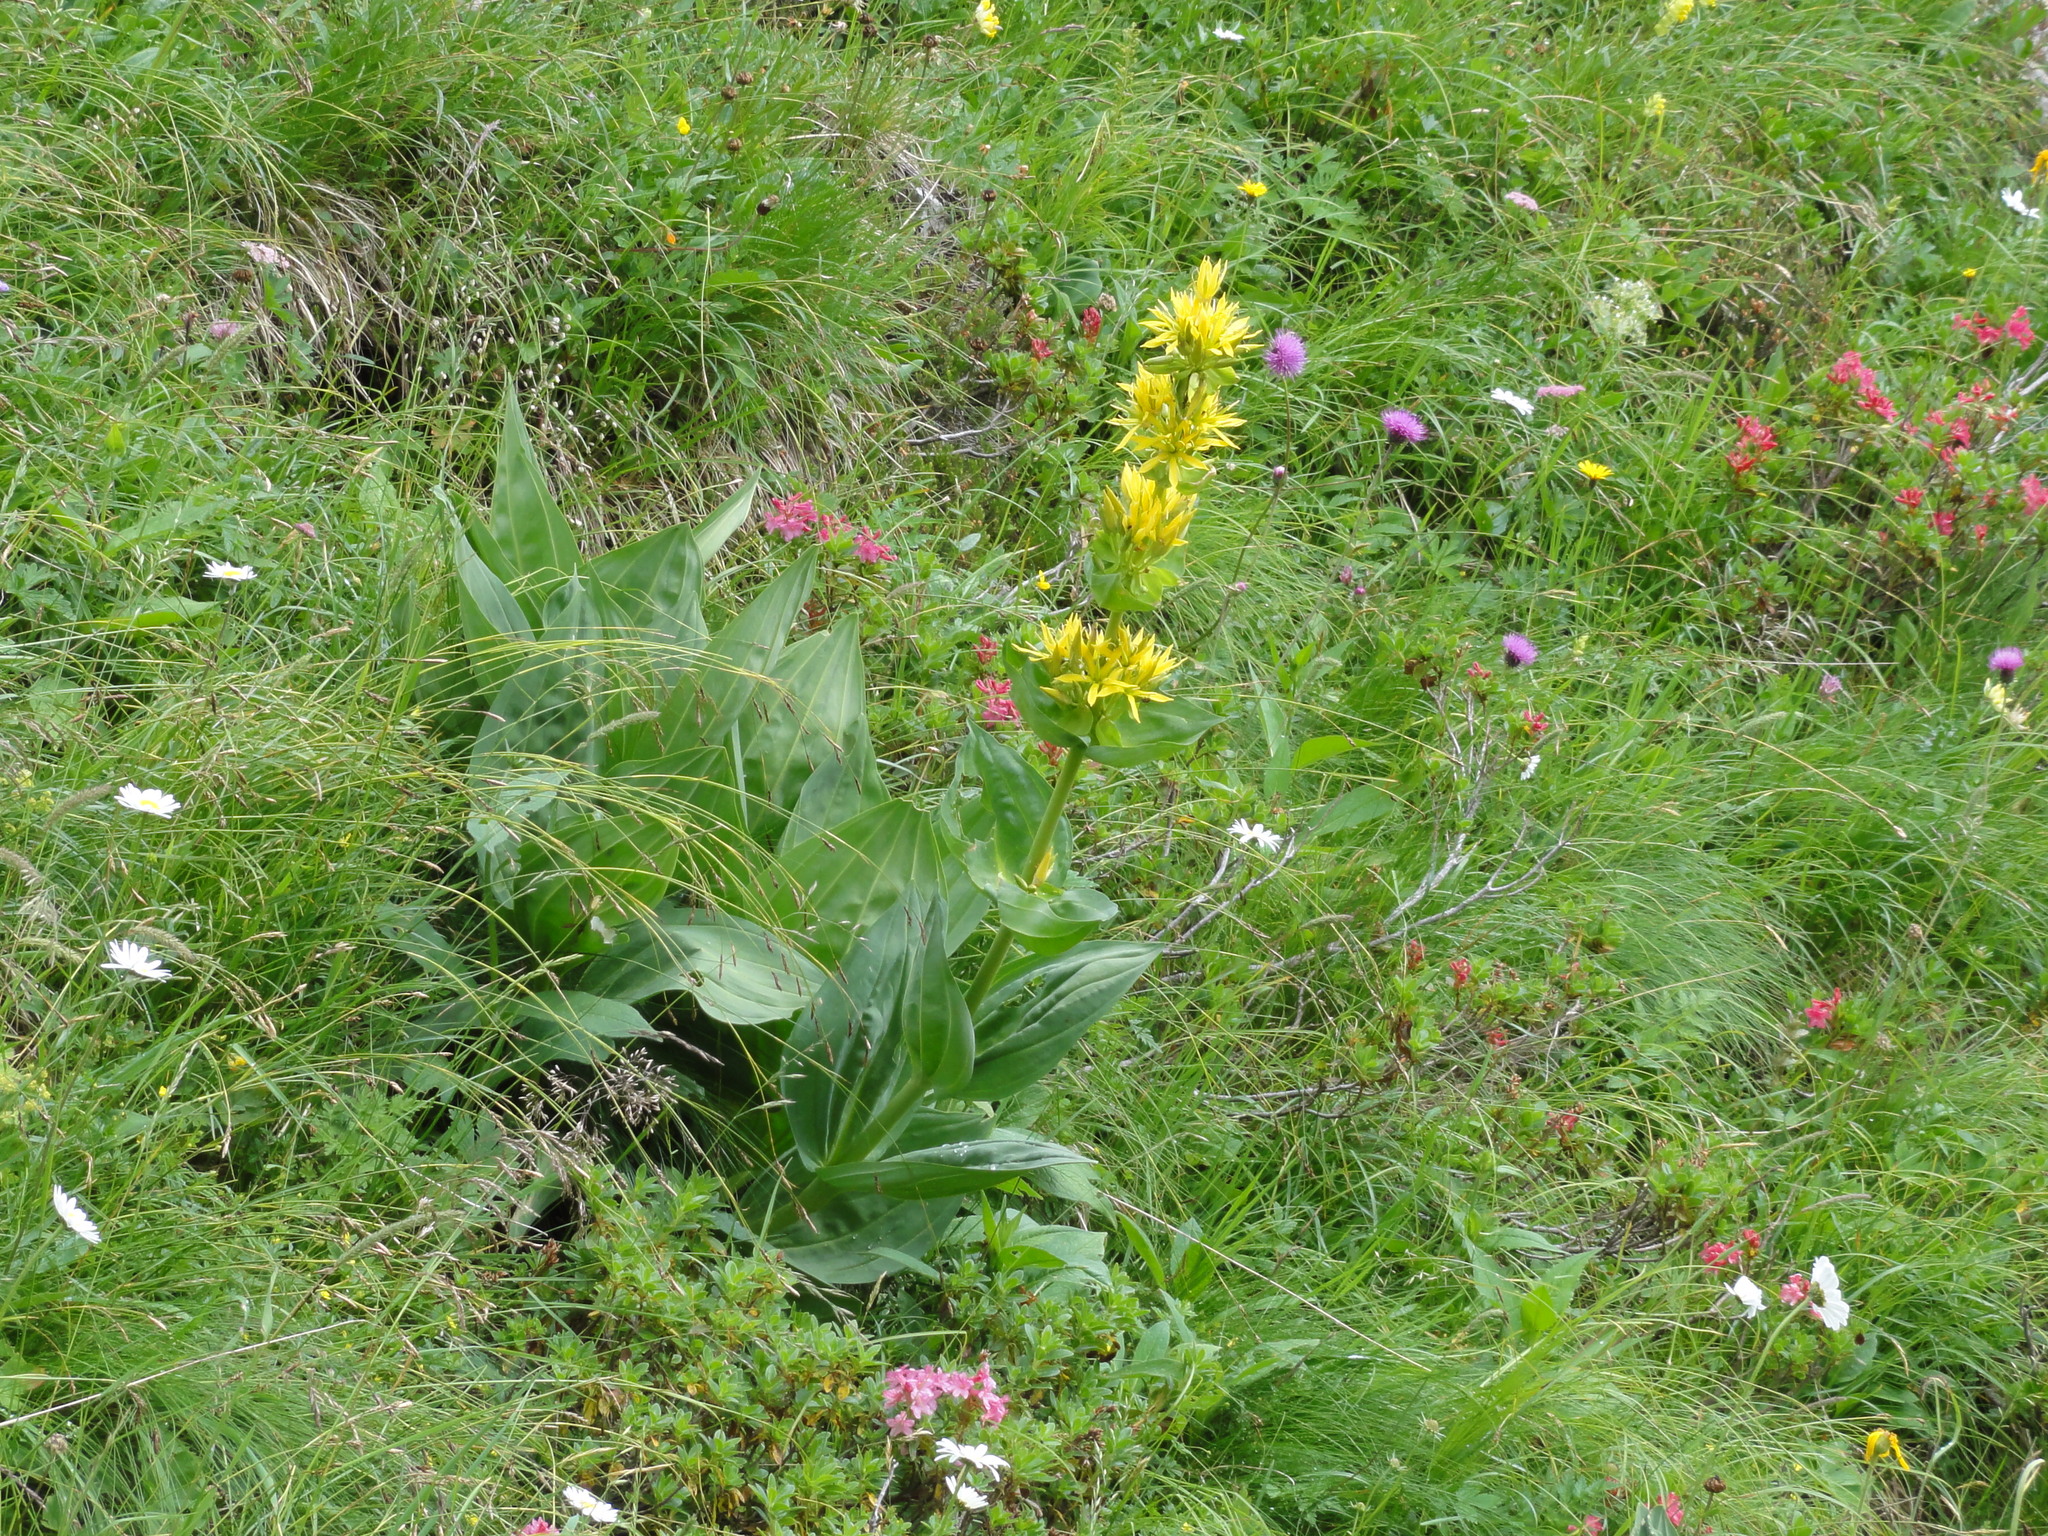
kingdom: Plantae
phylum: Tracheophyta
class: Magnoliopsida
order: Gentianales
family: Gentianaceae
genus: Gentiana
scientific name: Gentiana lutea
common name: Great yellow gentian
